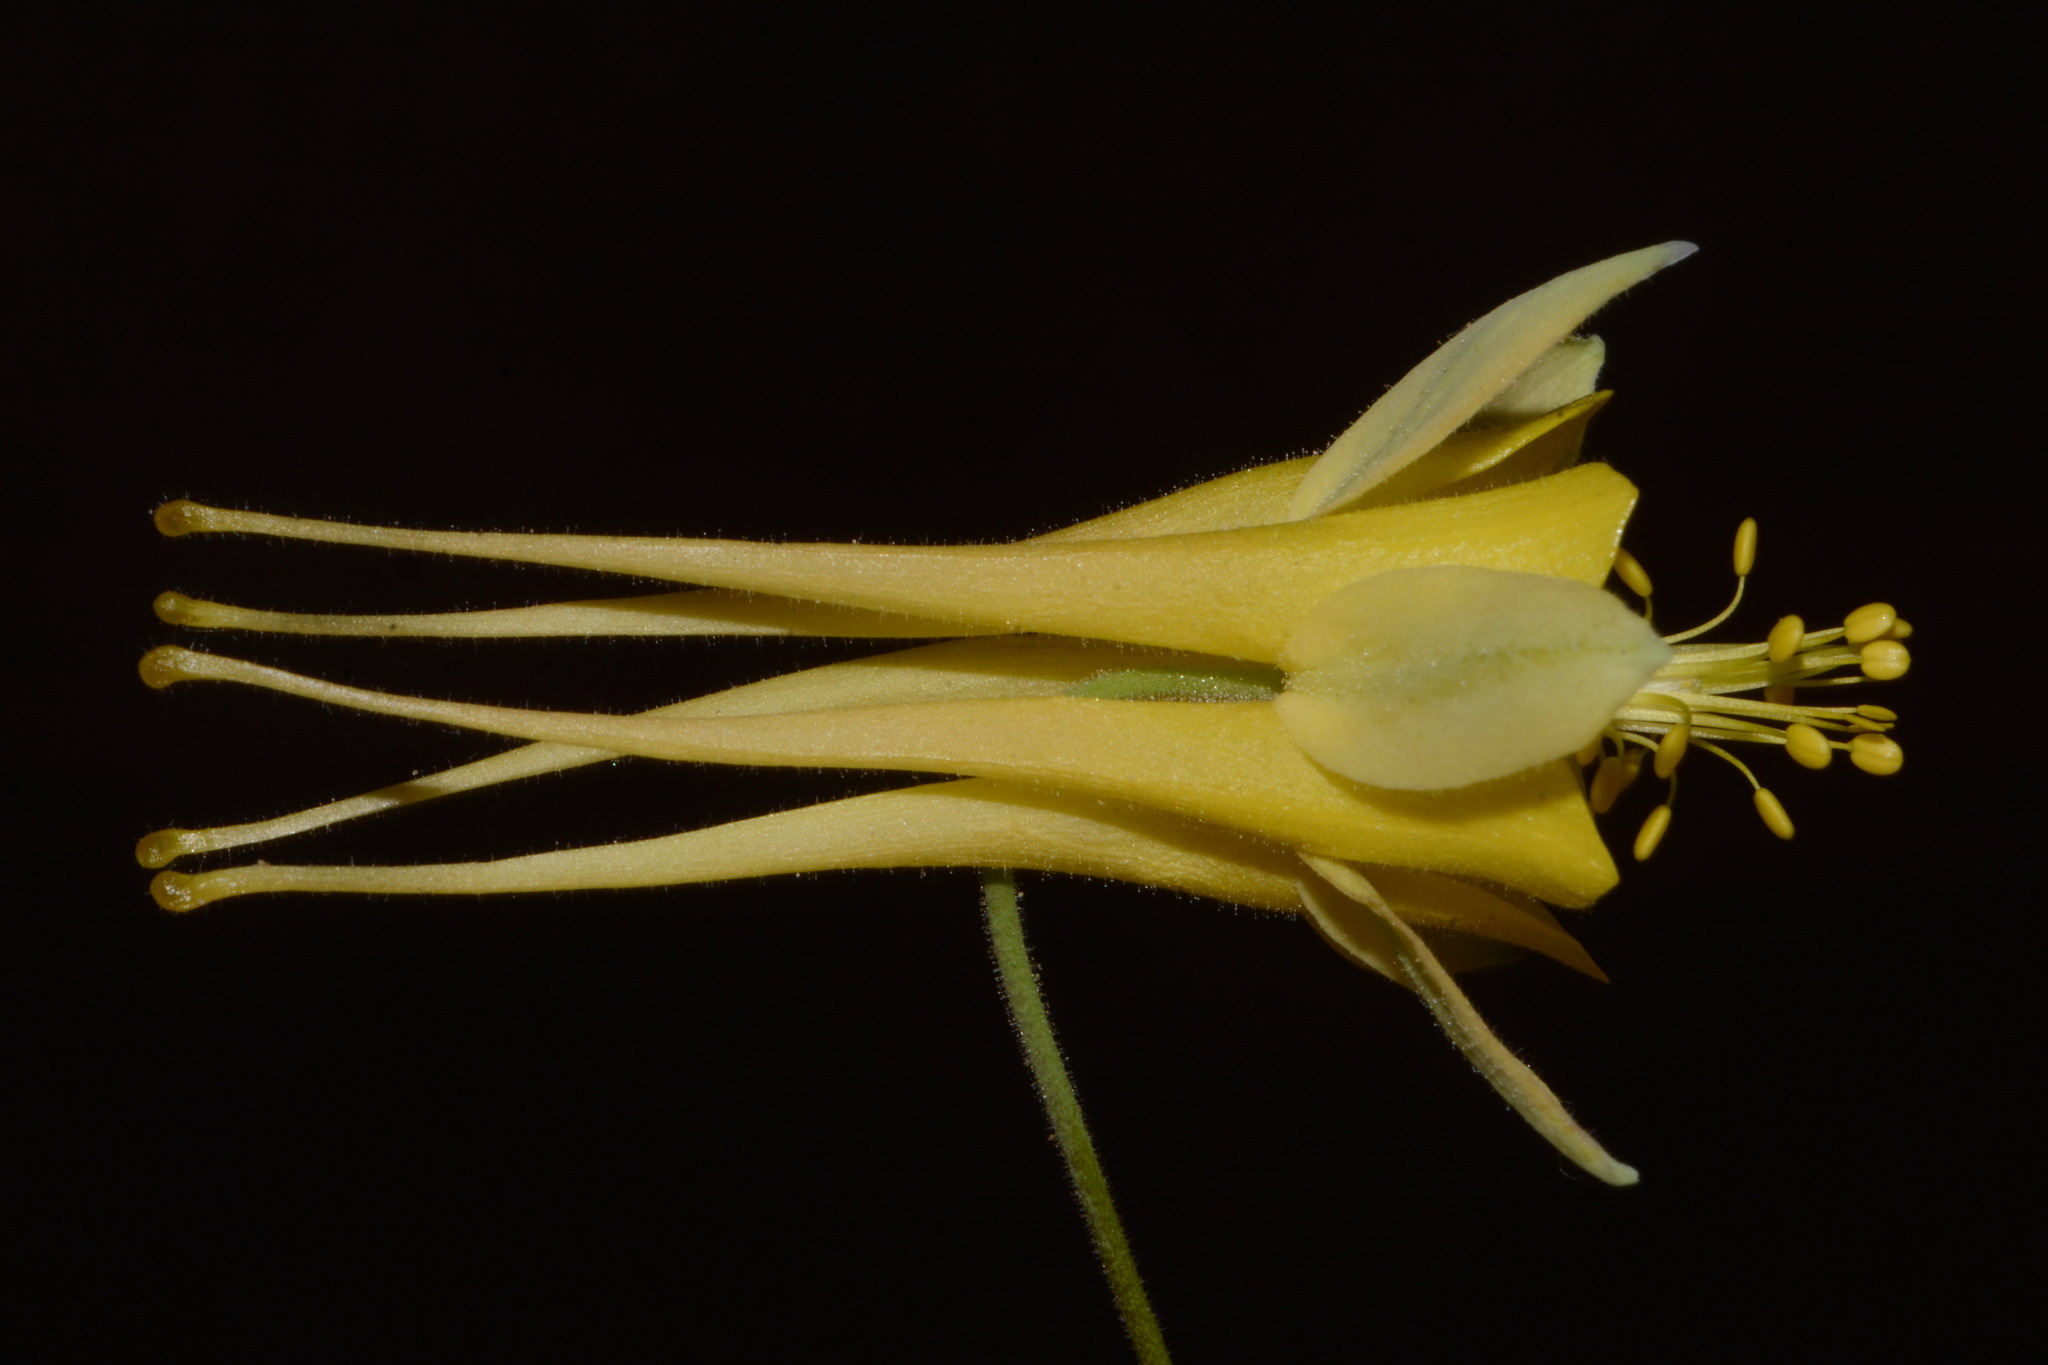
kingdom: Plantae
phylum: Tracheophyta
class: Magnoliopsida
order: Ranunculales
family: Ranunculaceae
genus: Aquilegia
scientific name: Aquilegia chrysantha
